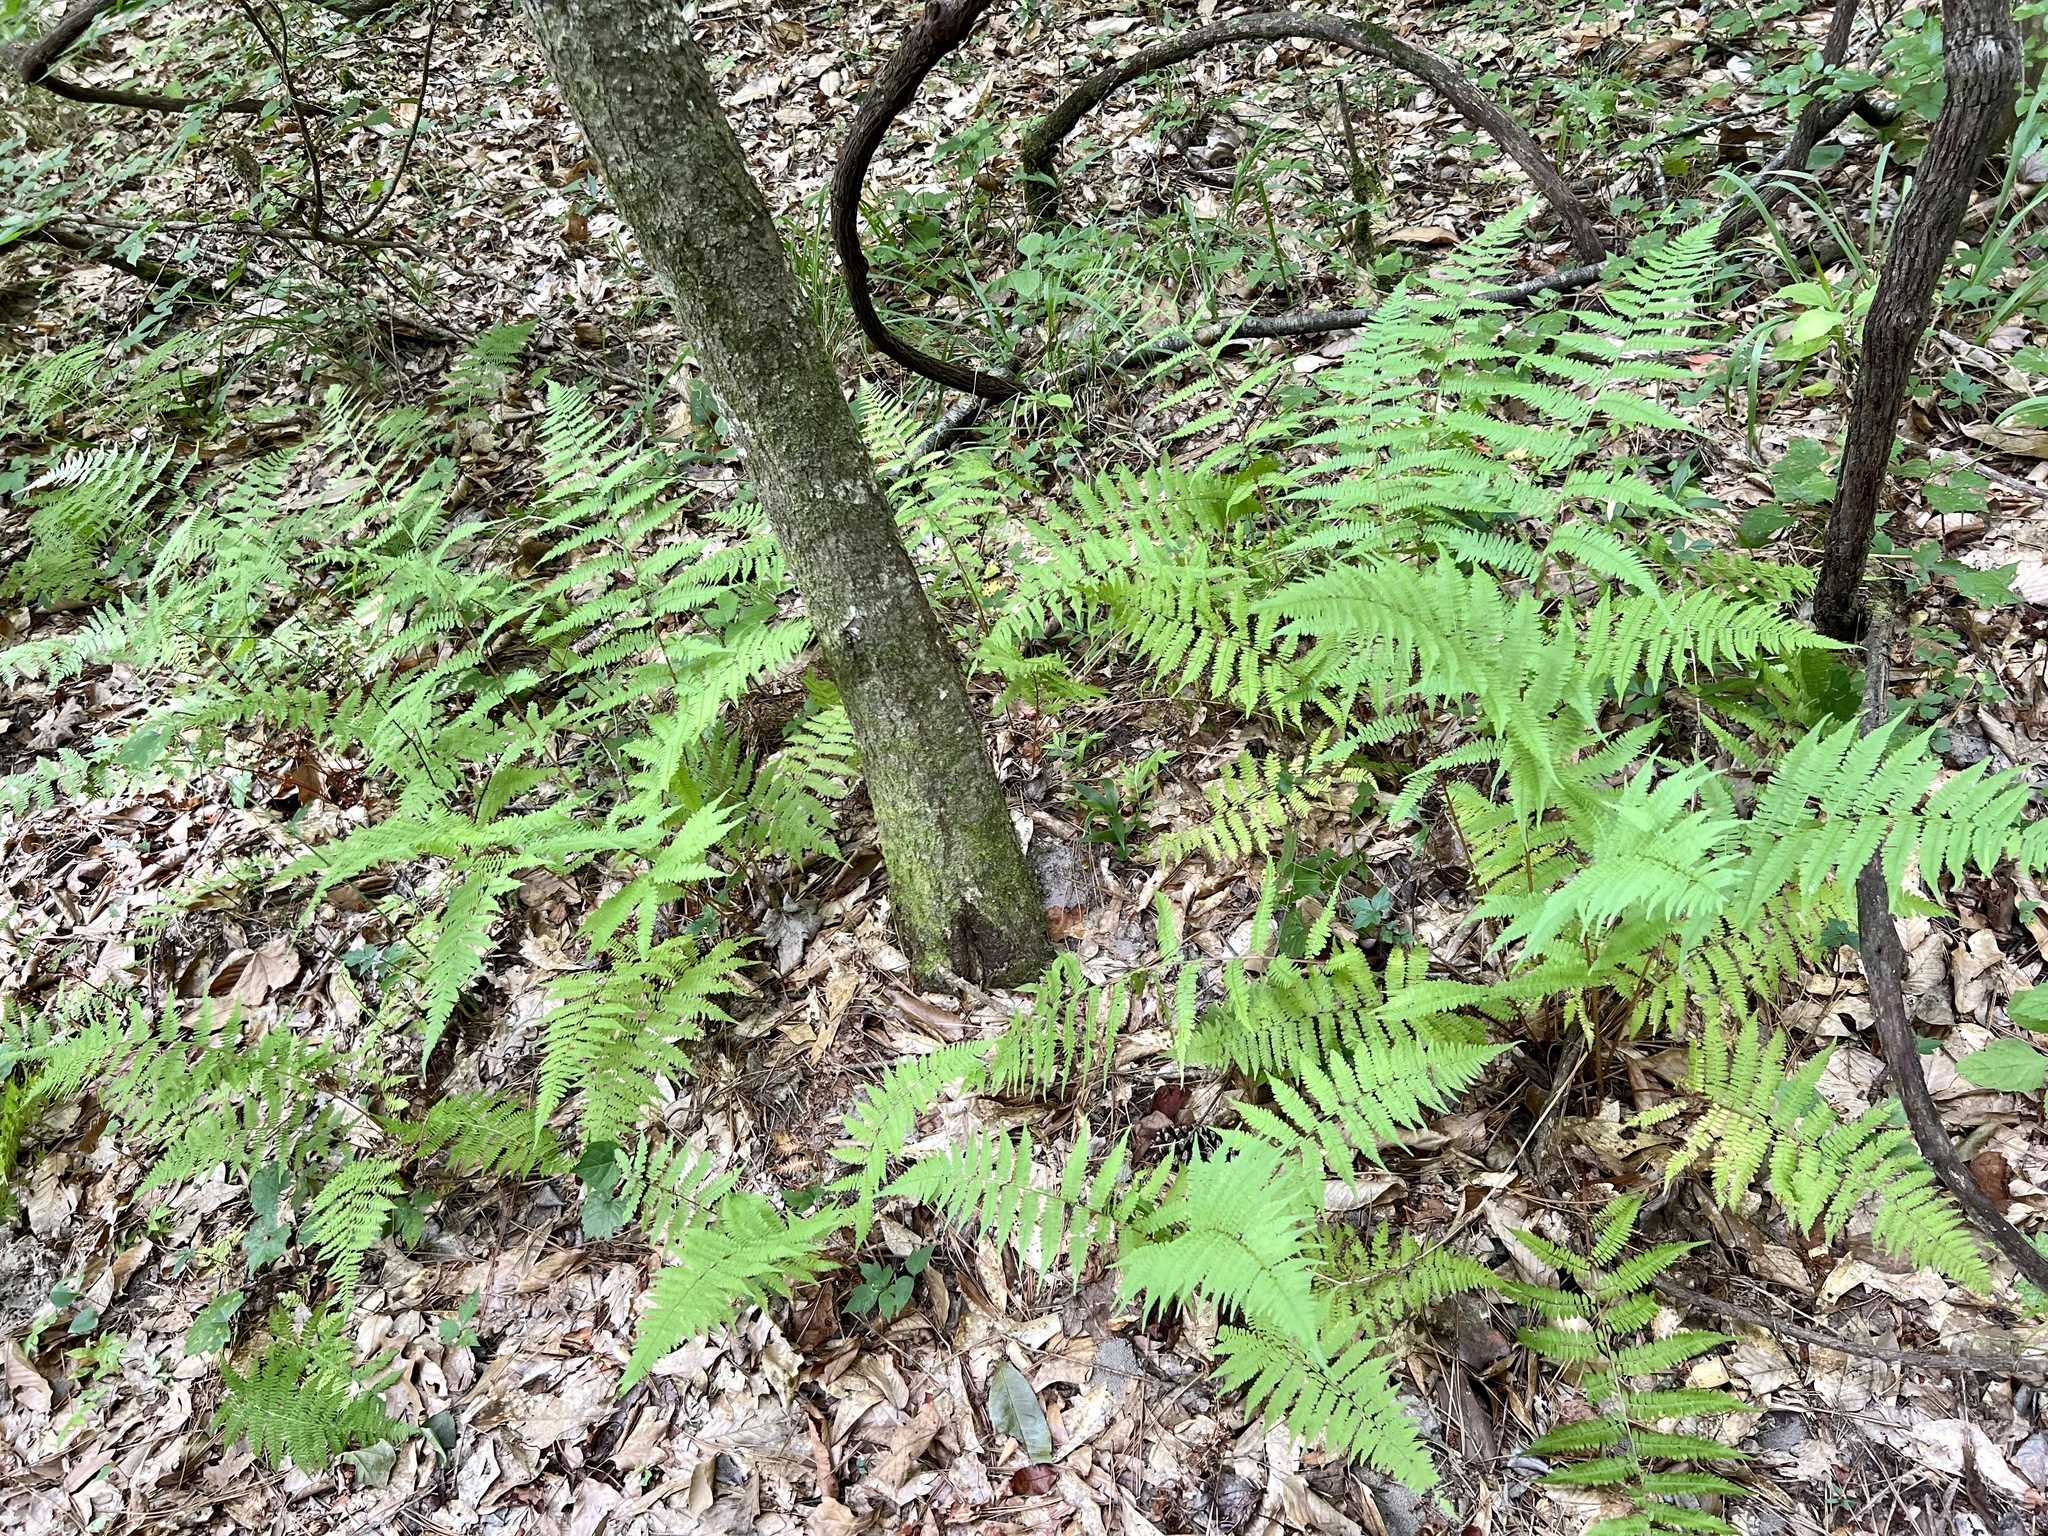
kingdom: Plantae
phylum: Tracheophyta
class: Polypodiopsida
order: Polypodiales
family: Athyriaceae
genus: Athyrium
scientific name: Athyrium asplenioides
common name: Southern lady fern
